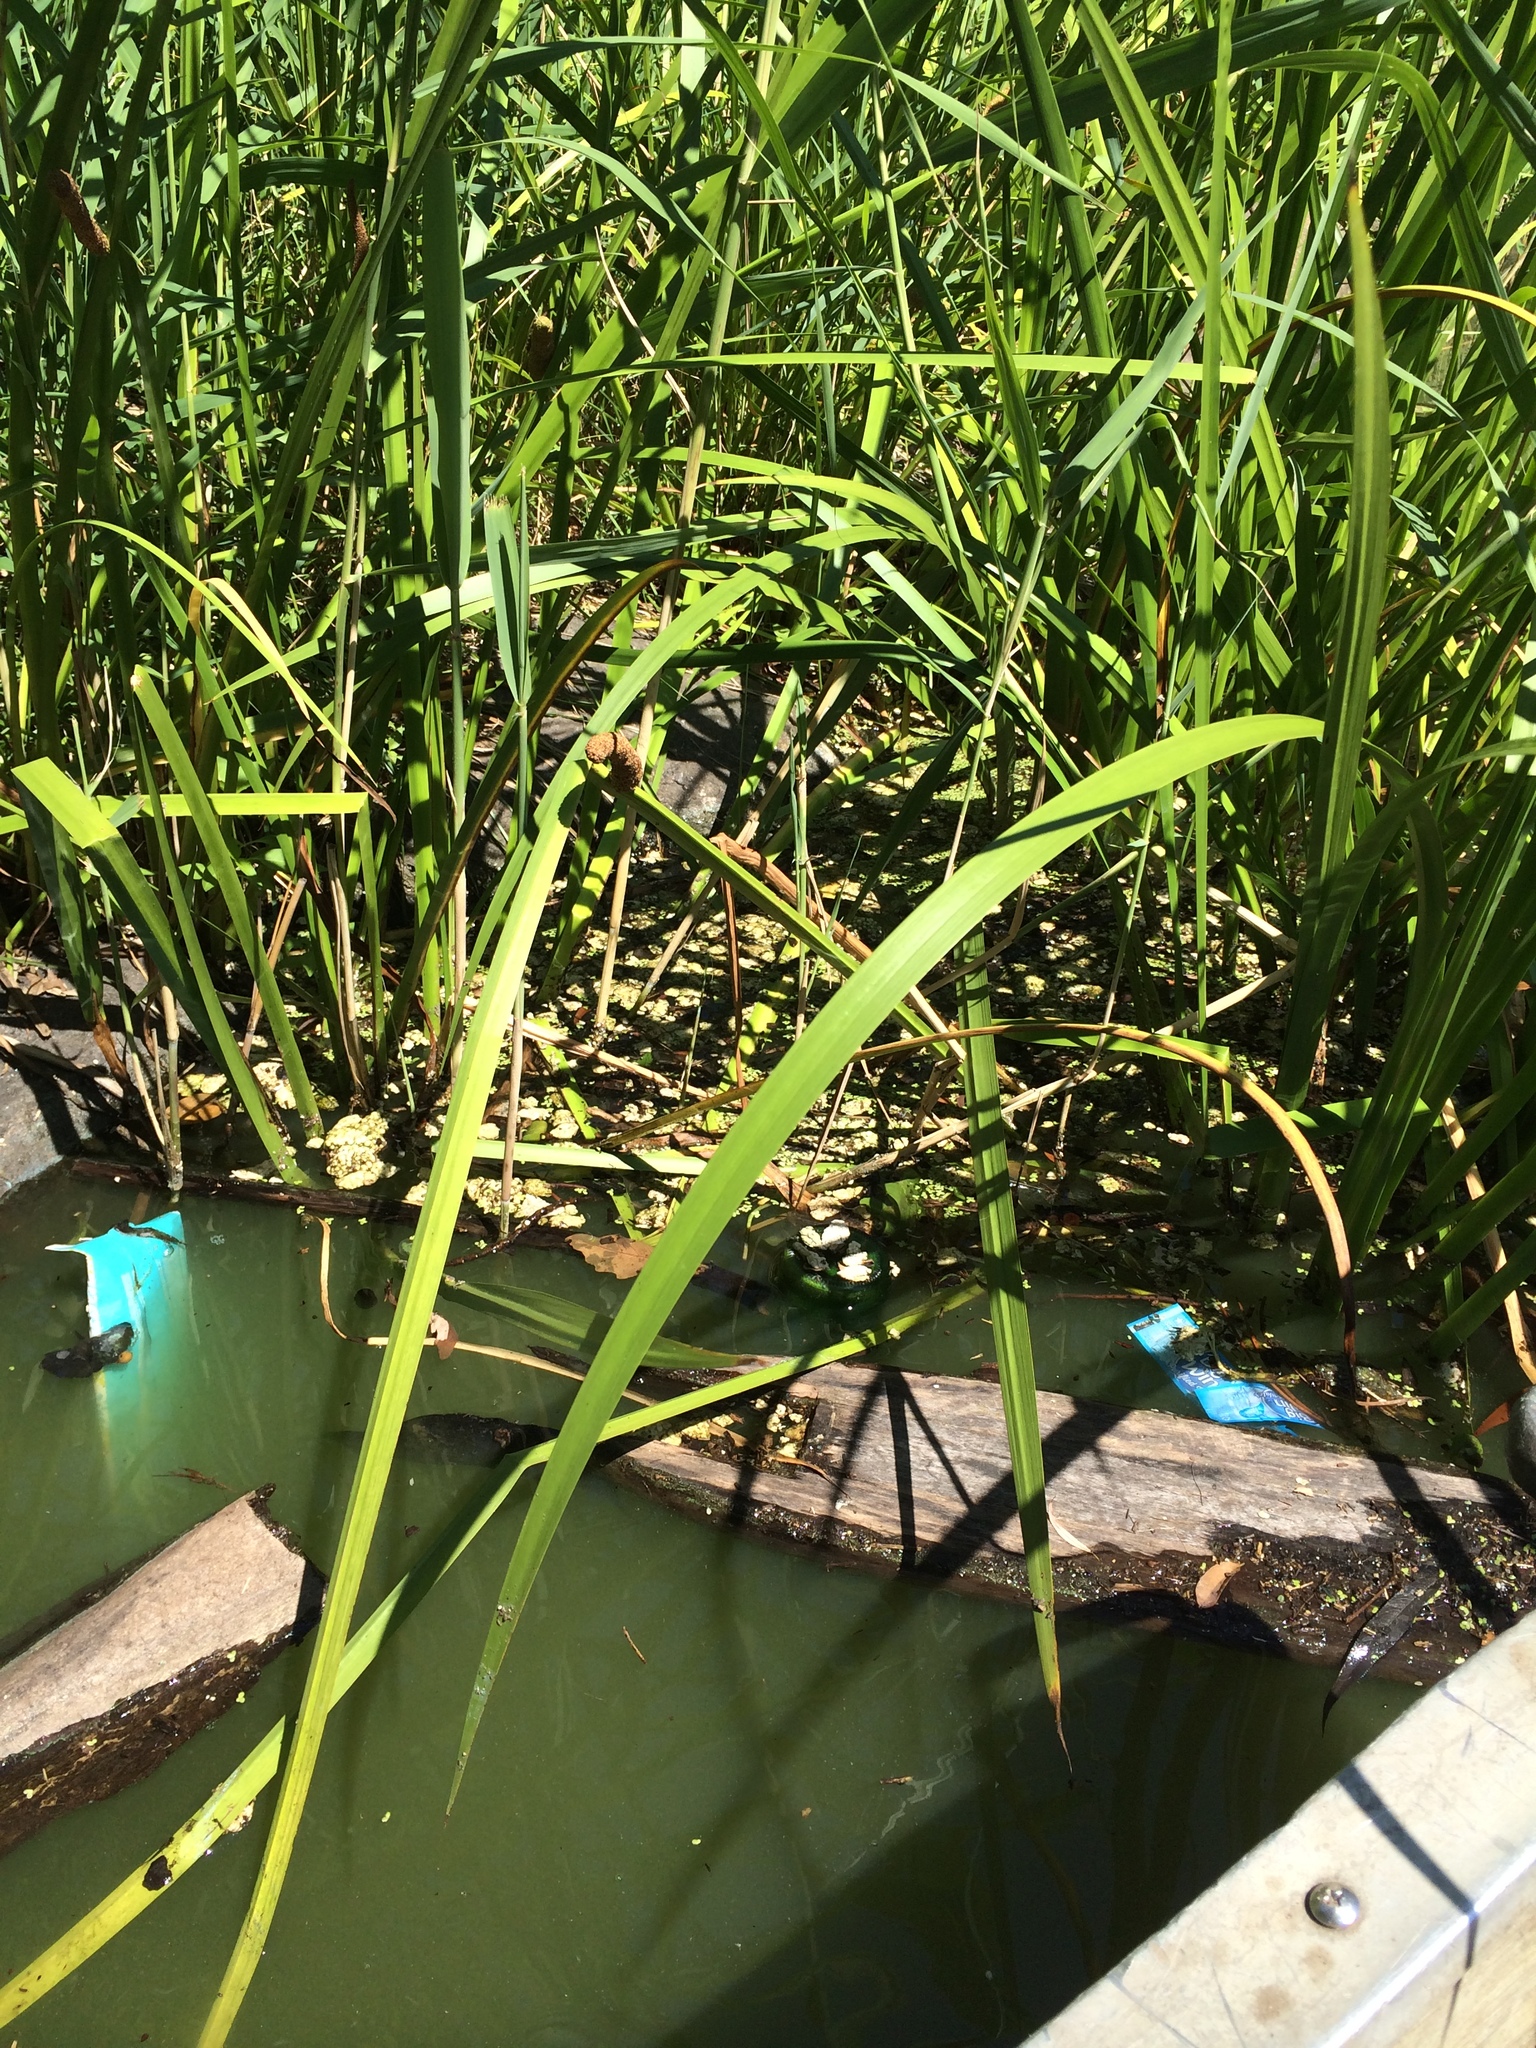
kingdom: Plantae
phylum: Tracheophyta
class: Liliopsida
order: Acorales
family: Acoraceae
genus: Acorus
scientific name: Acorus calamus
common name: Sweet-flag
